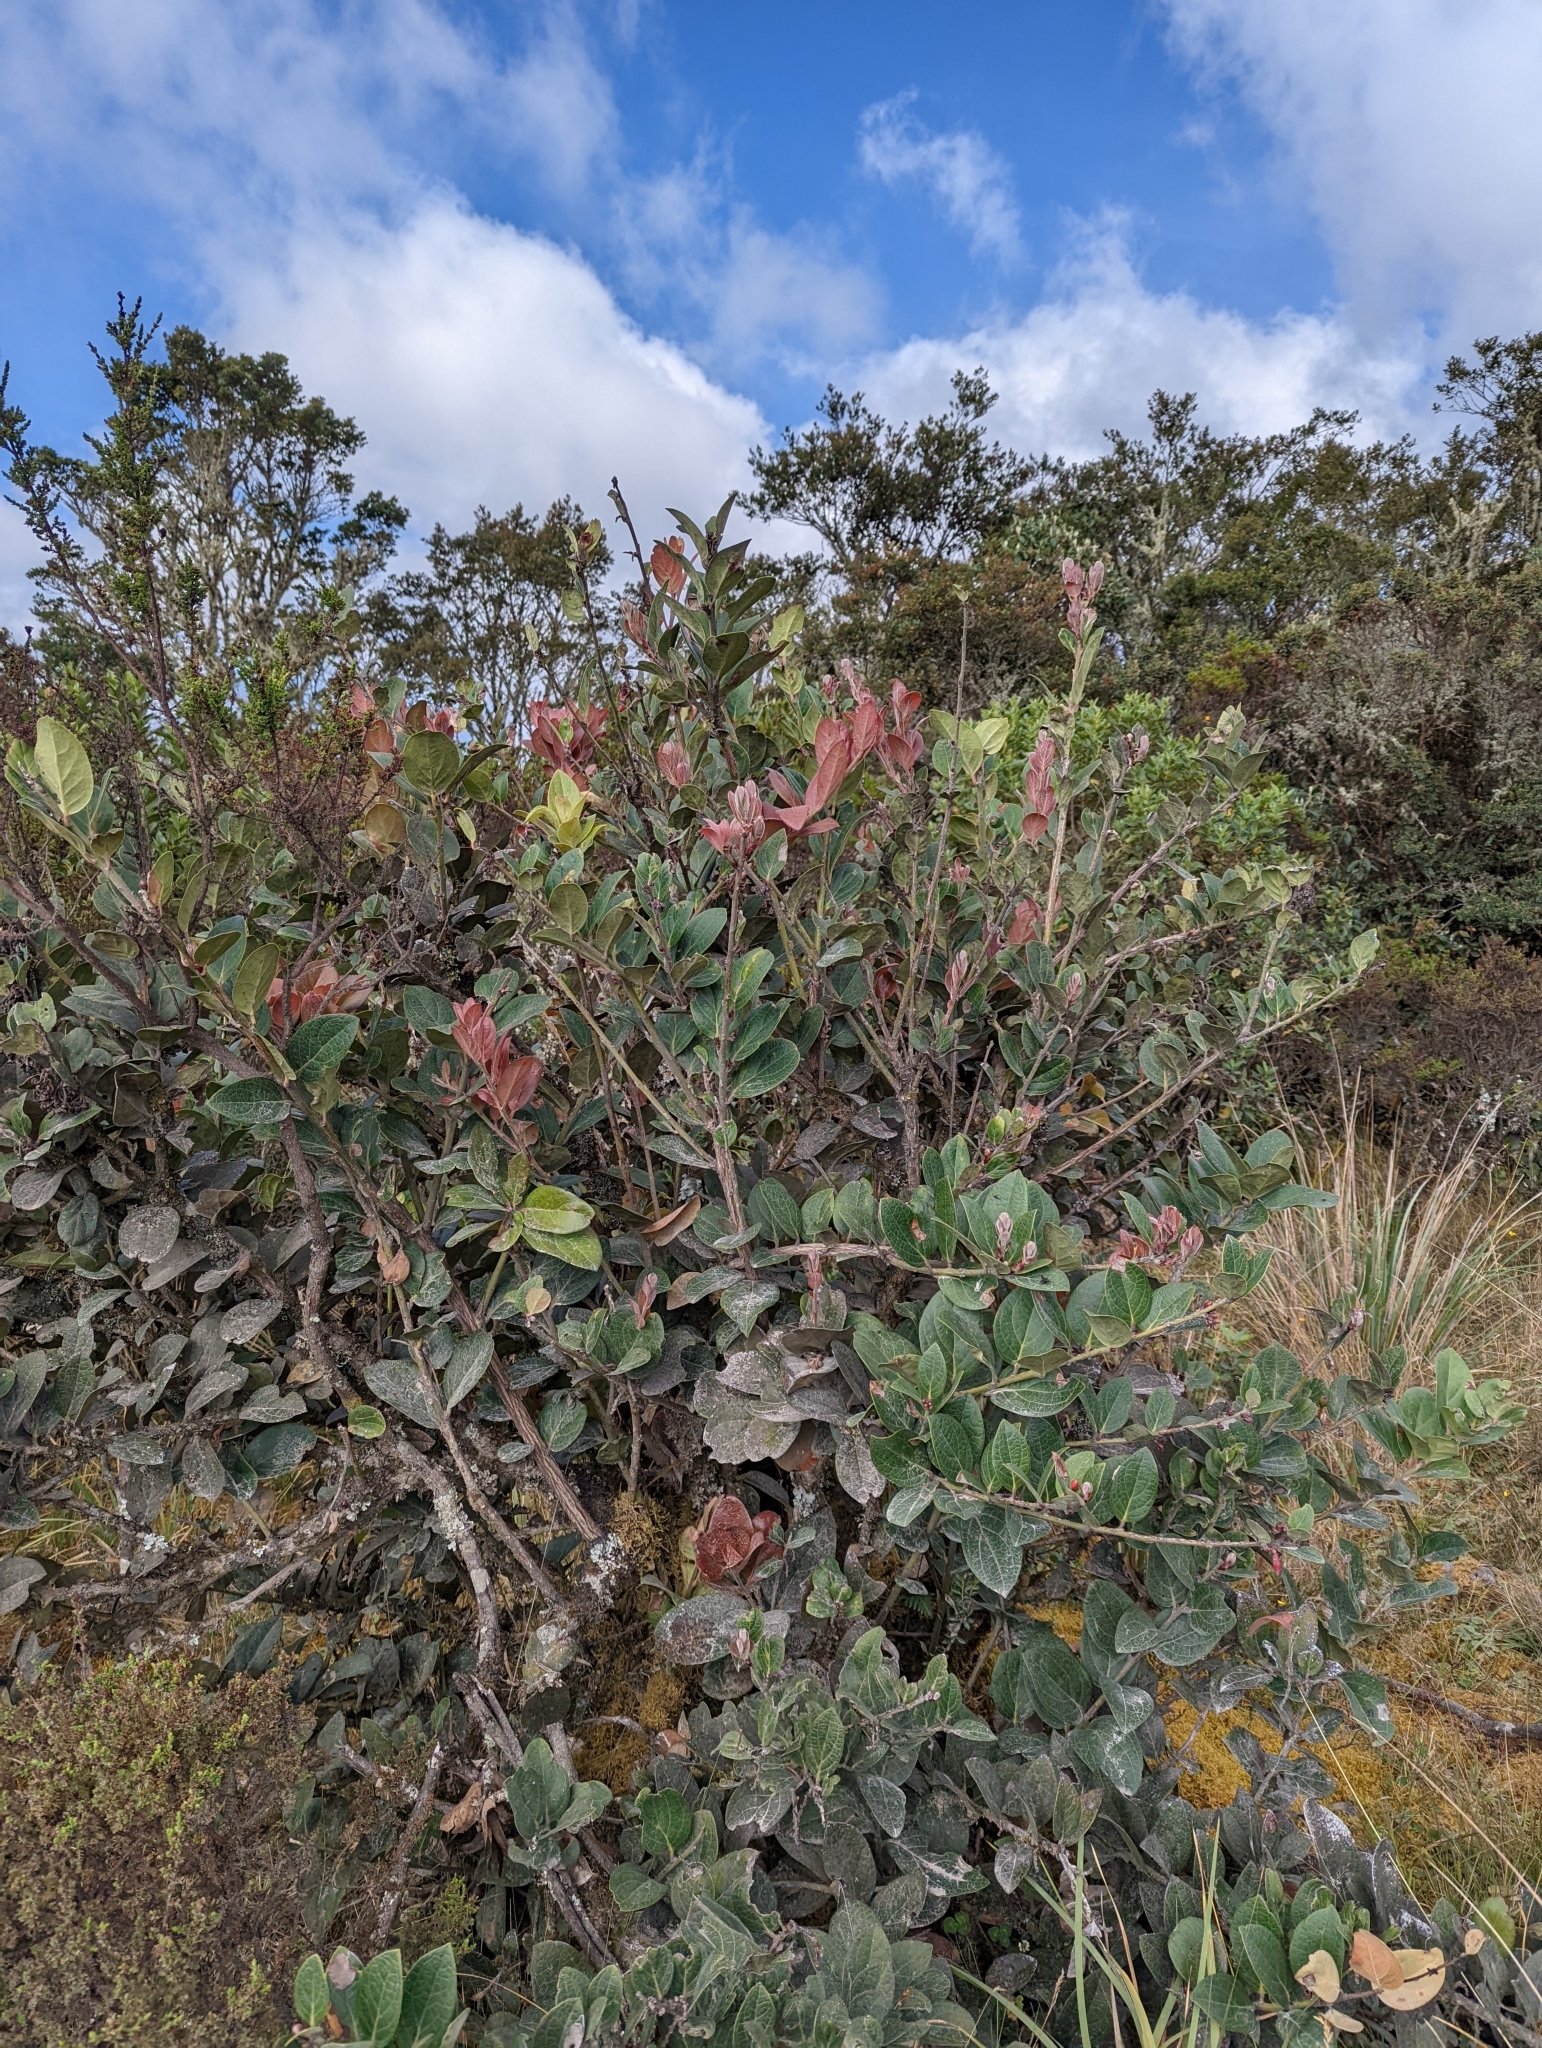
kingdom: Plantae
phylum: Tracheophyta
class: Magnoliopsida
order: Ericales
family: Ericaceae
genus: Macleania
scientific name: Macleania rupestris
